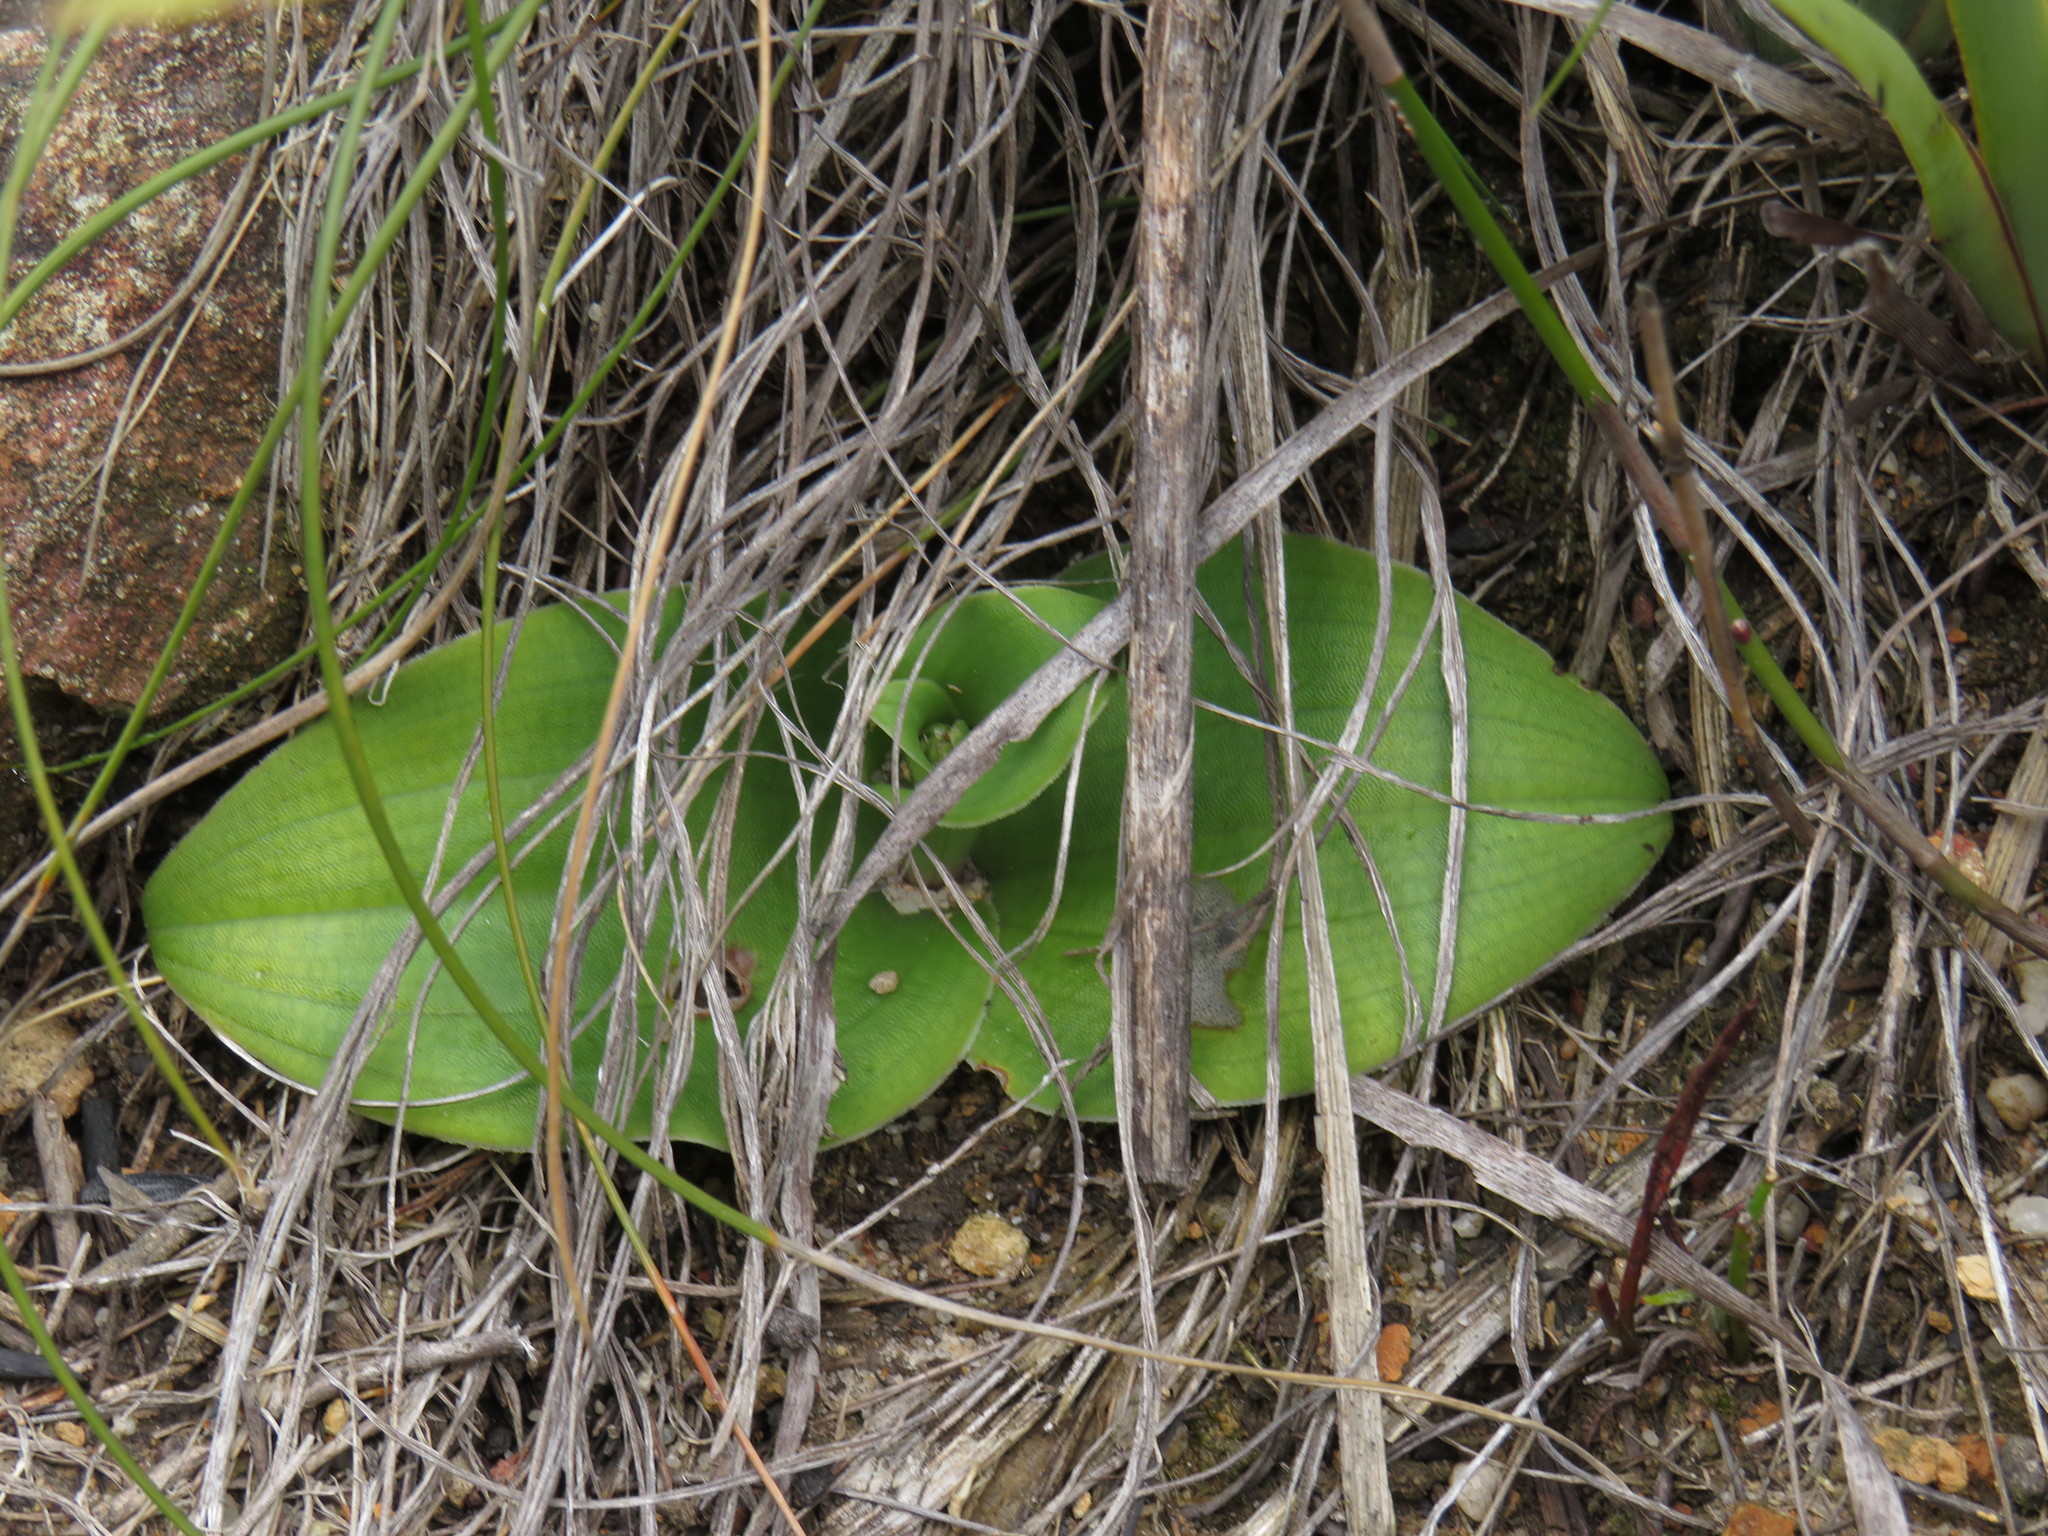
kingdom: Plantae
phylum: Tracheophyta
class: Liliopsida
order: Asparagales
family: Orchidaceae
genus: Satyrium
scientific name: Satyrium humile
